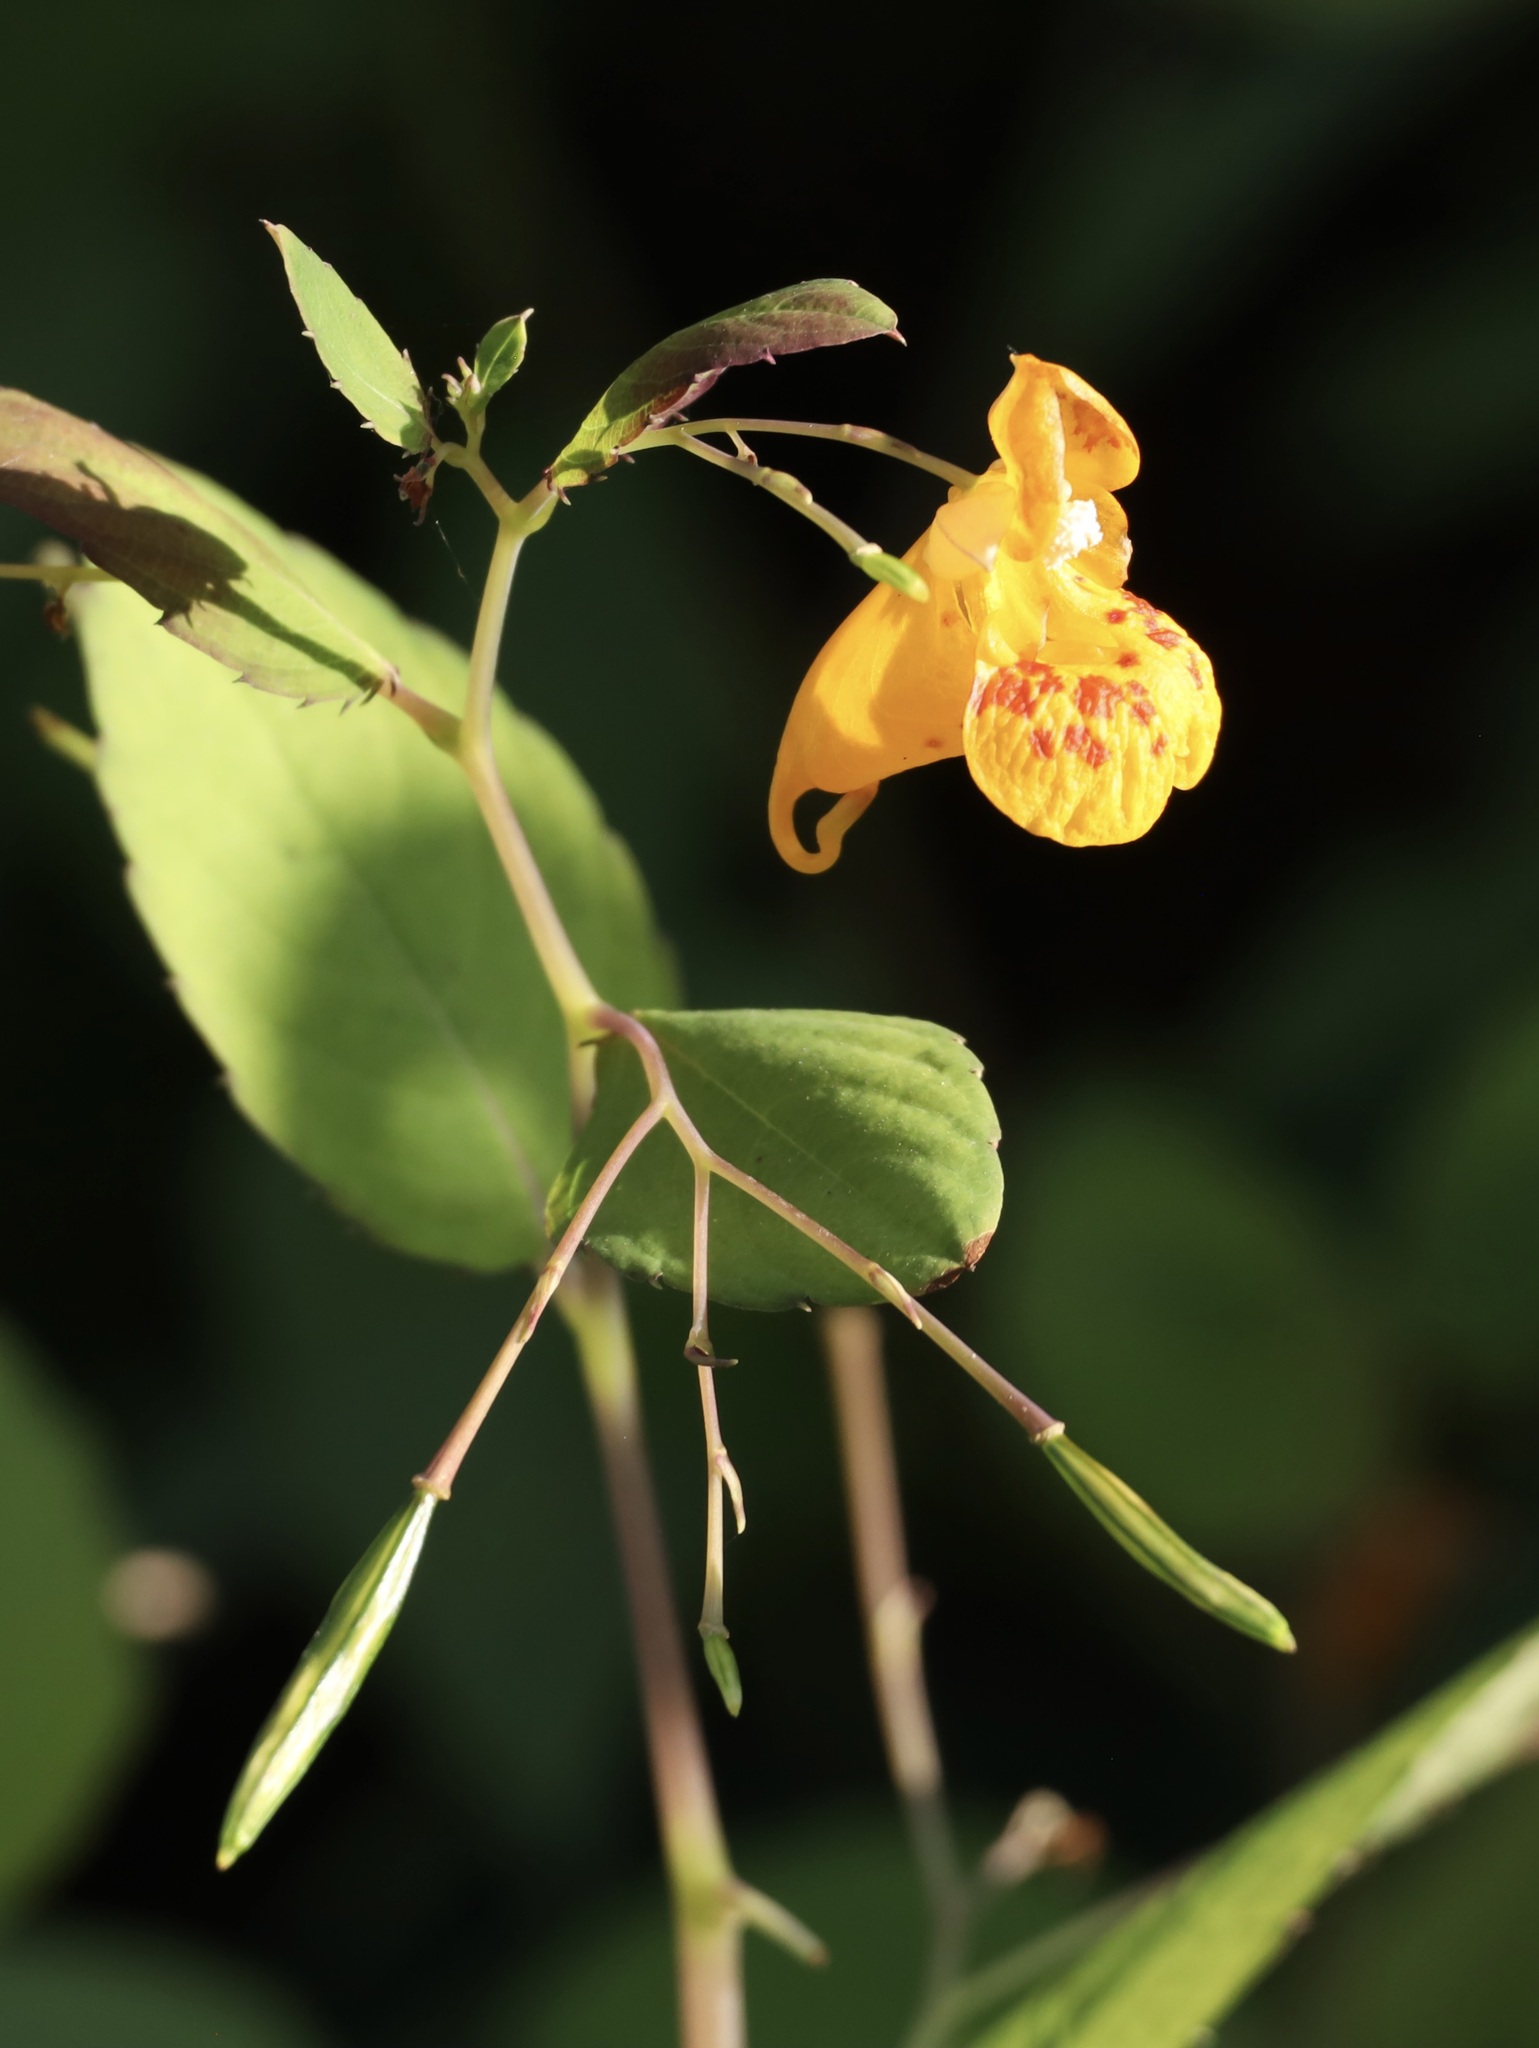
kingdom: Plantae
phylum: Tracheophyta
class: Magnoliopsida
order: Ericales
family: Balsaminaceae
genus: Impatiens
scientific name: Impatiens capensis
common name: Orange balsam
